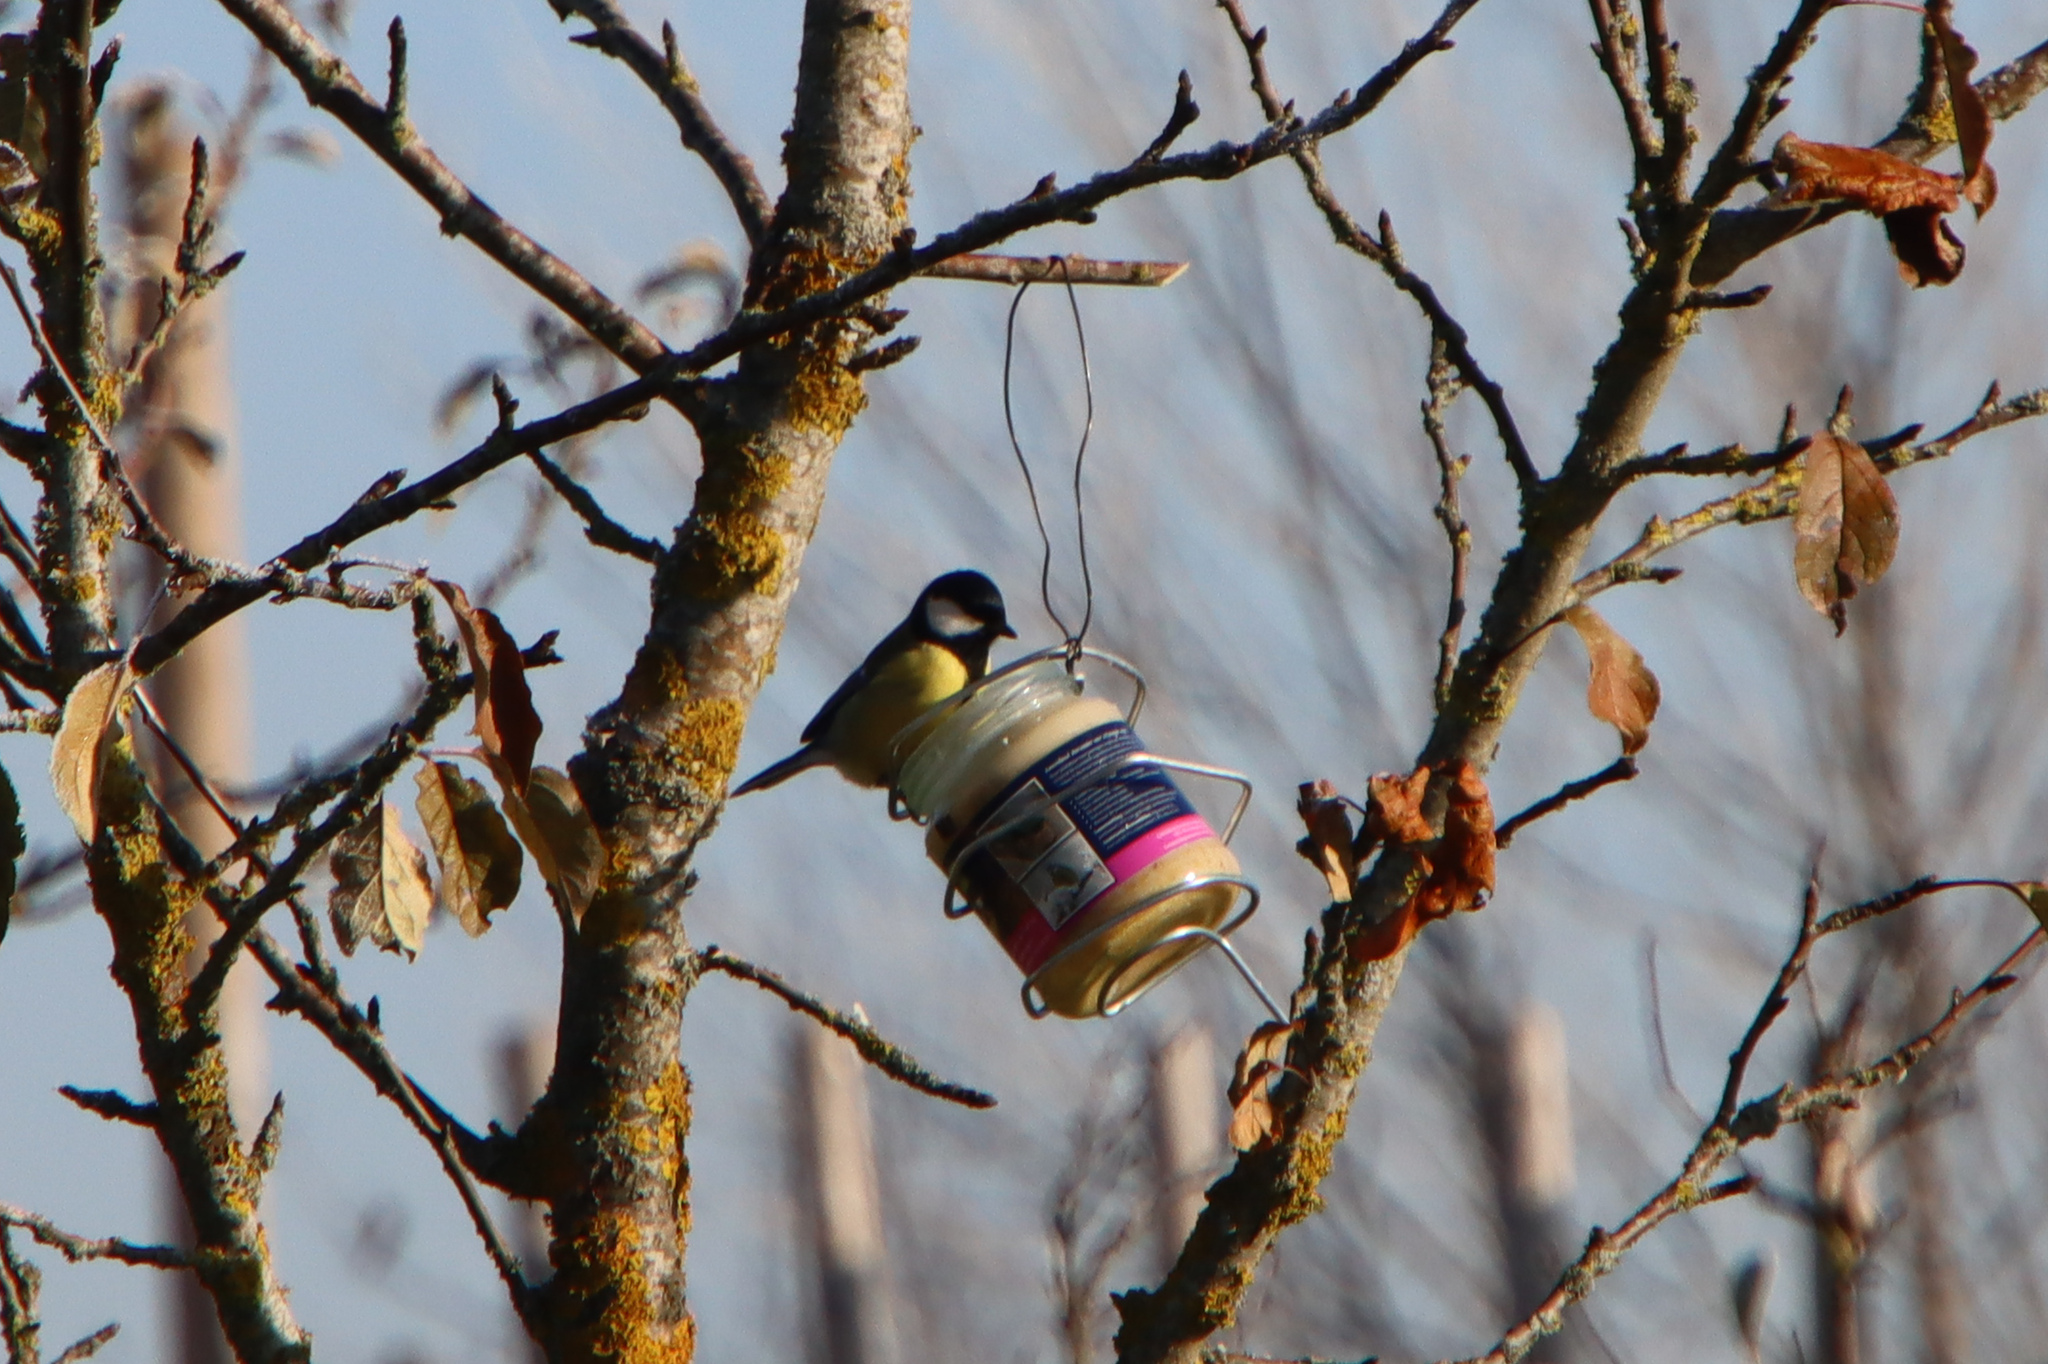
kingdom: Animalia
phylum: Chordata
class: Aves
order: Passeriformes
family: Paridae
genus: Parus
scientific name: Parus major
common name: Great tit
